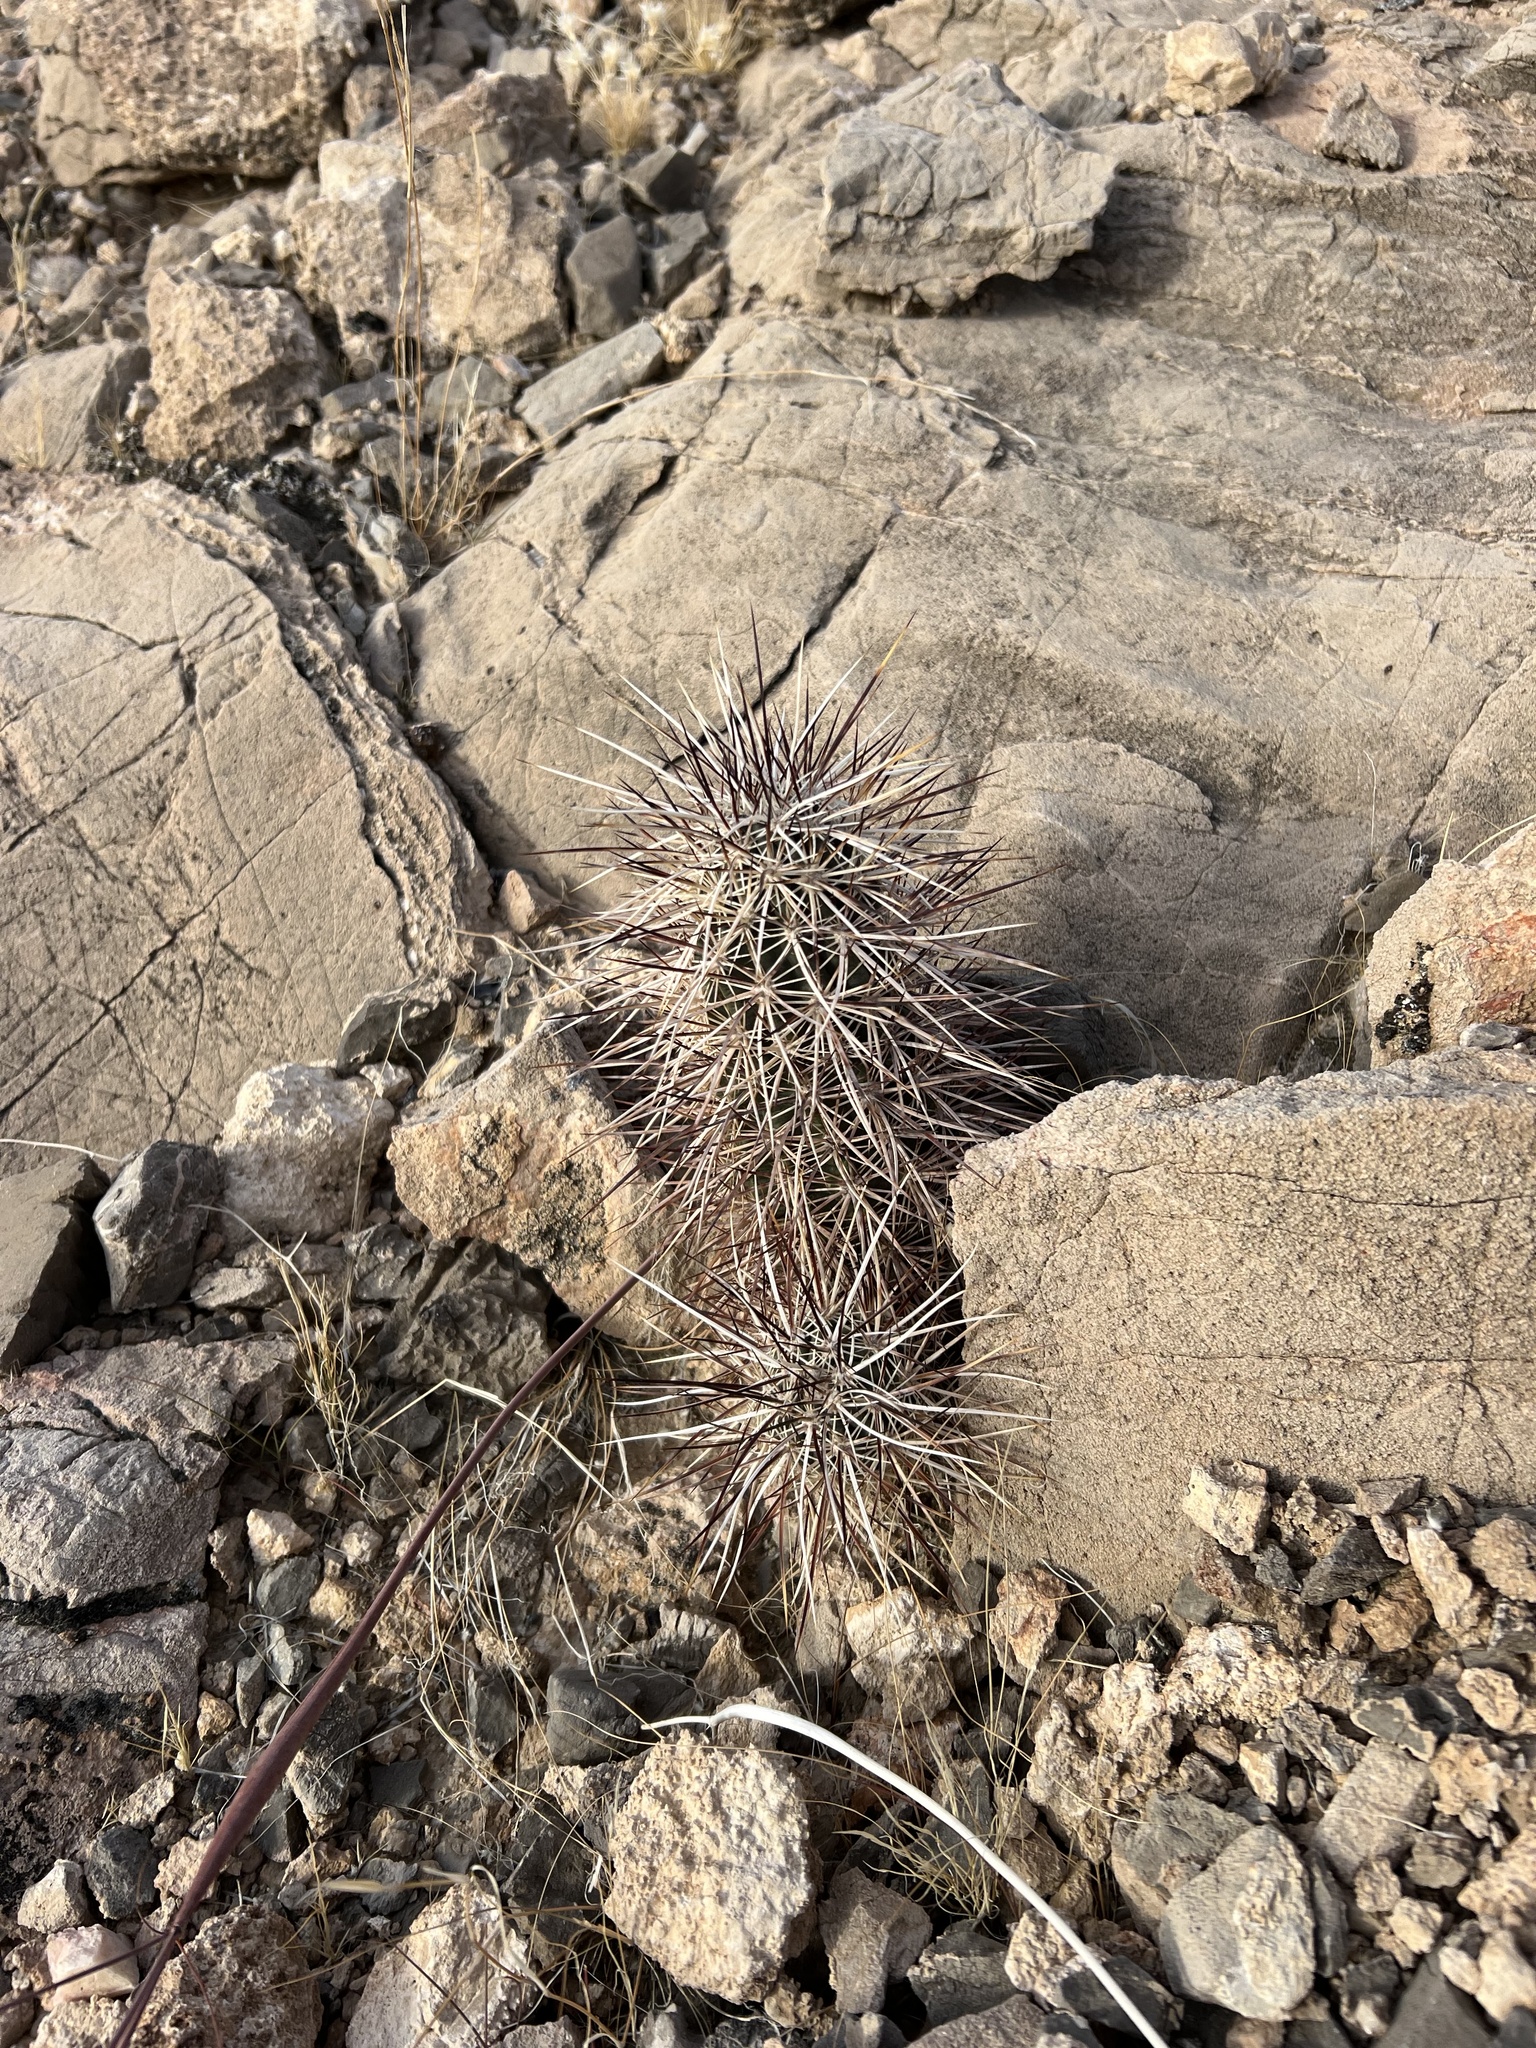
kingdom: Plantae
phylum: Tracheophyta
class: Magnoliopsida
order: Caryophyllales
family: Cactaceae
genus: Echinocereus
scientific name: Echinocereus engelmannii
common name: Engelmann's hedgehog cactus
